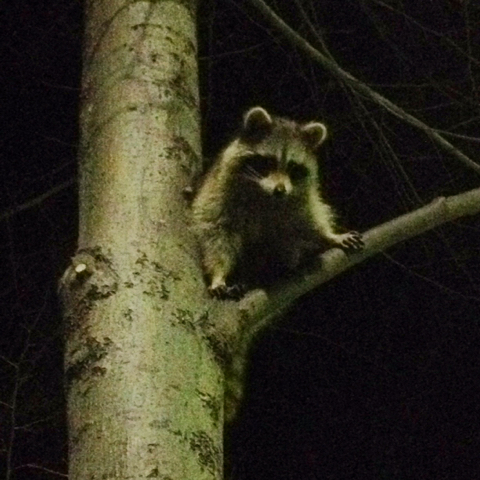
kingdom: Animalia
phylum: Chordata
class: Mammalia
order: Carnivora
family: Procyonidae
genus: Procyon
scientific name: Procyon lotor
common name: Raccoon
